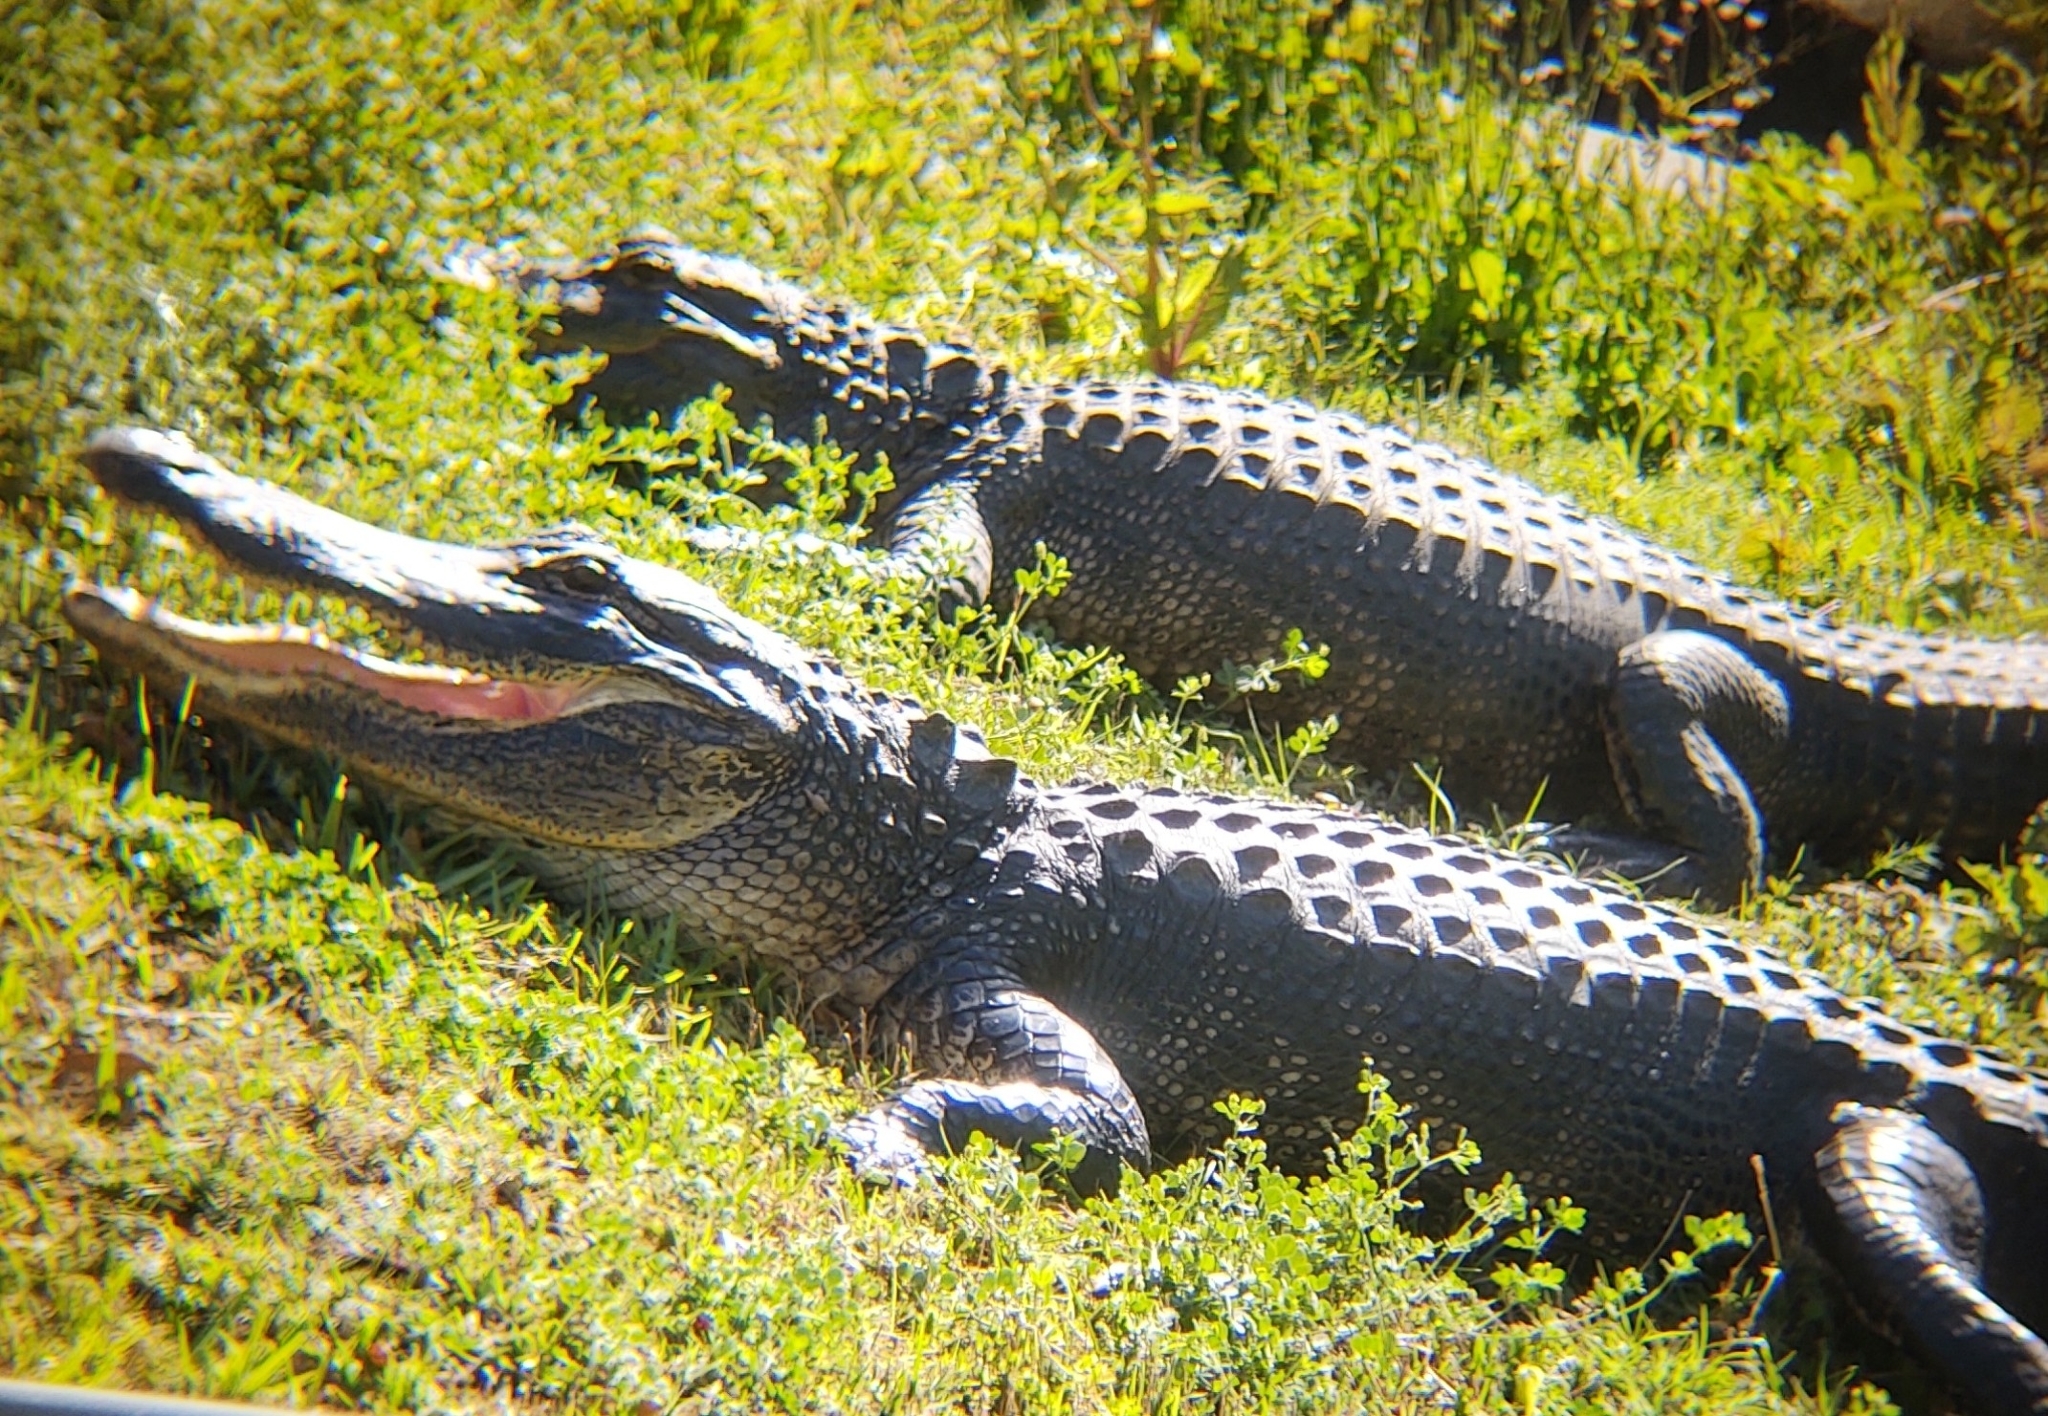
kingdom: Animalia
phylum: Chordata
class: Crocodylia
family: Alligatoridae
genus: Alligator
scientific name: Alligator mississippiensis
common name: American alligator
